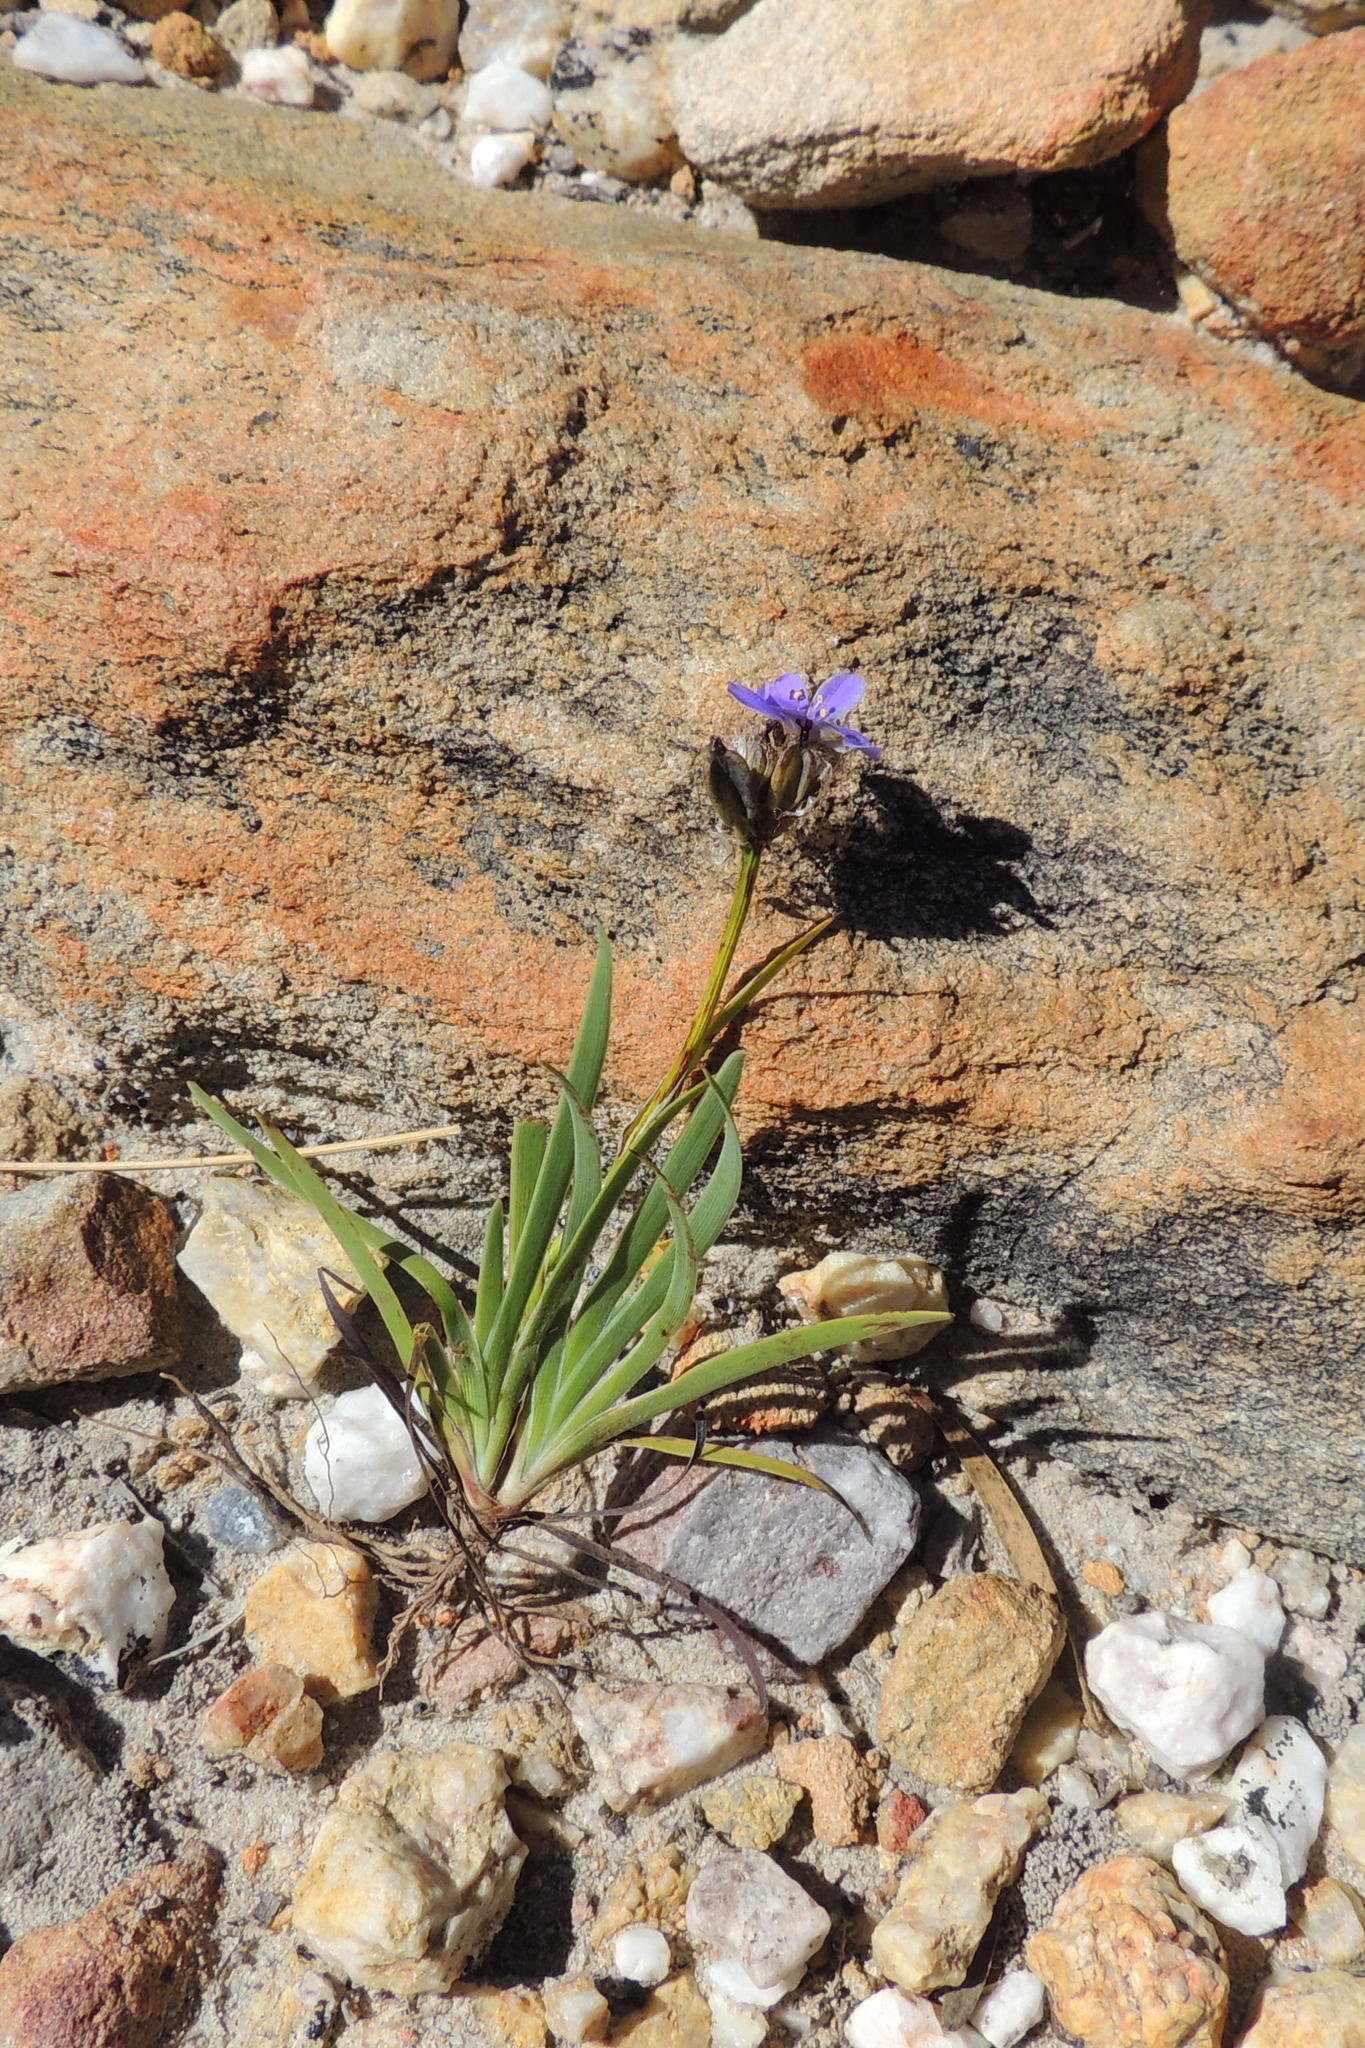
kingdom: Plantae
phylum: Tracheophyta
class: Liliopsida
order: Asparagales
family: Iridaceae
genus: Aristea
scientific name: Aristea africana
